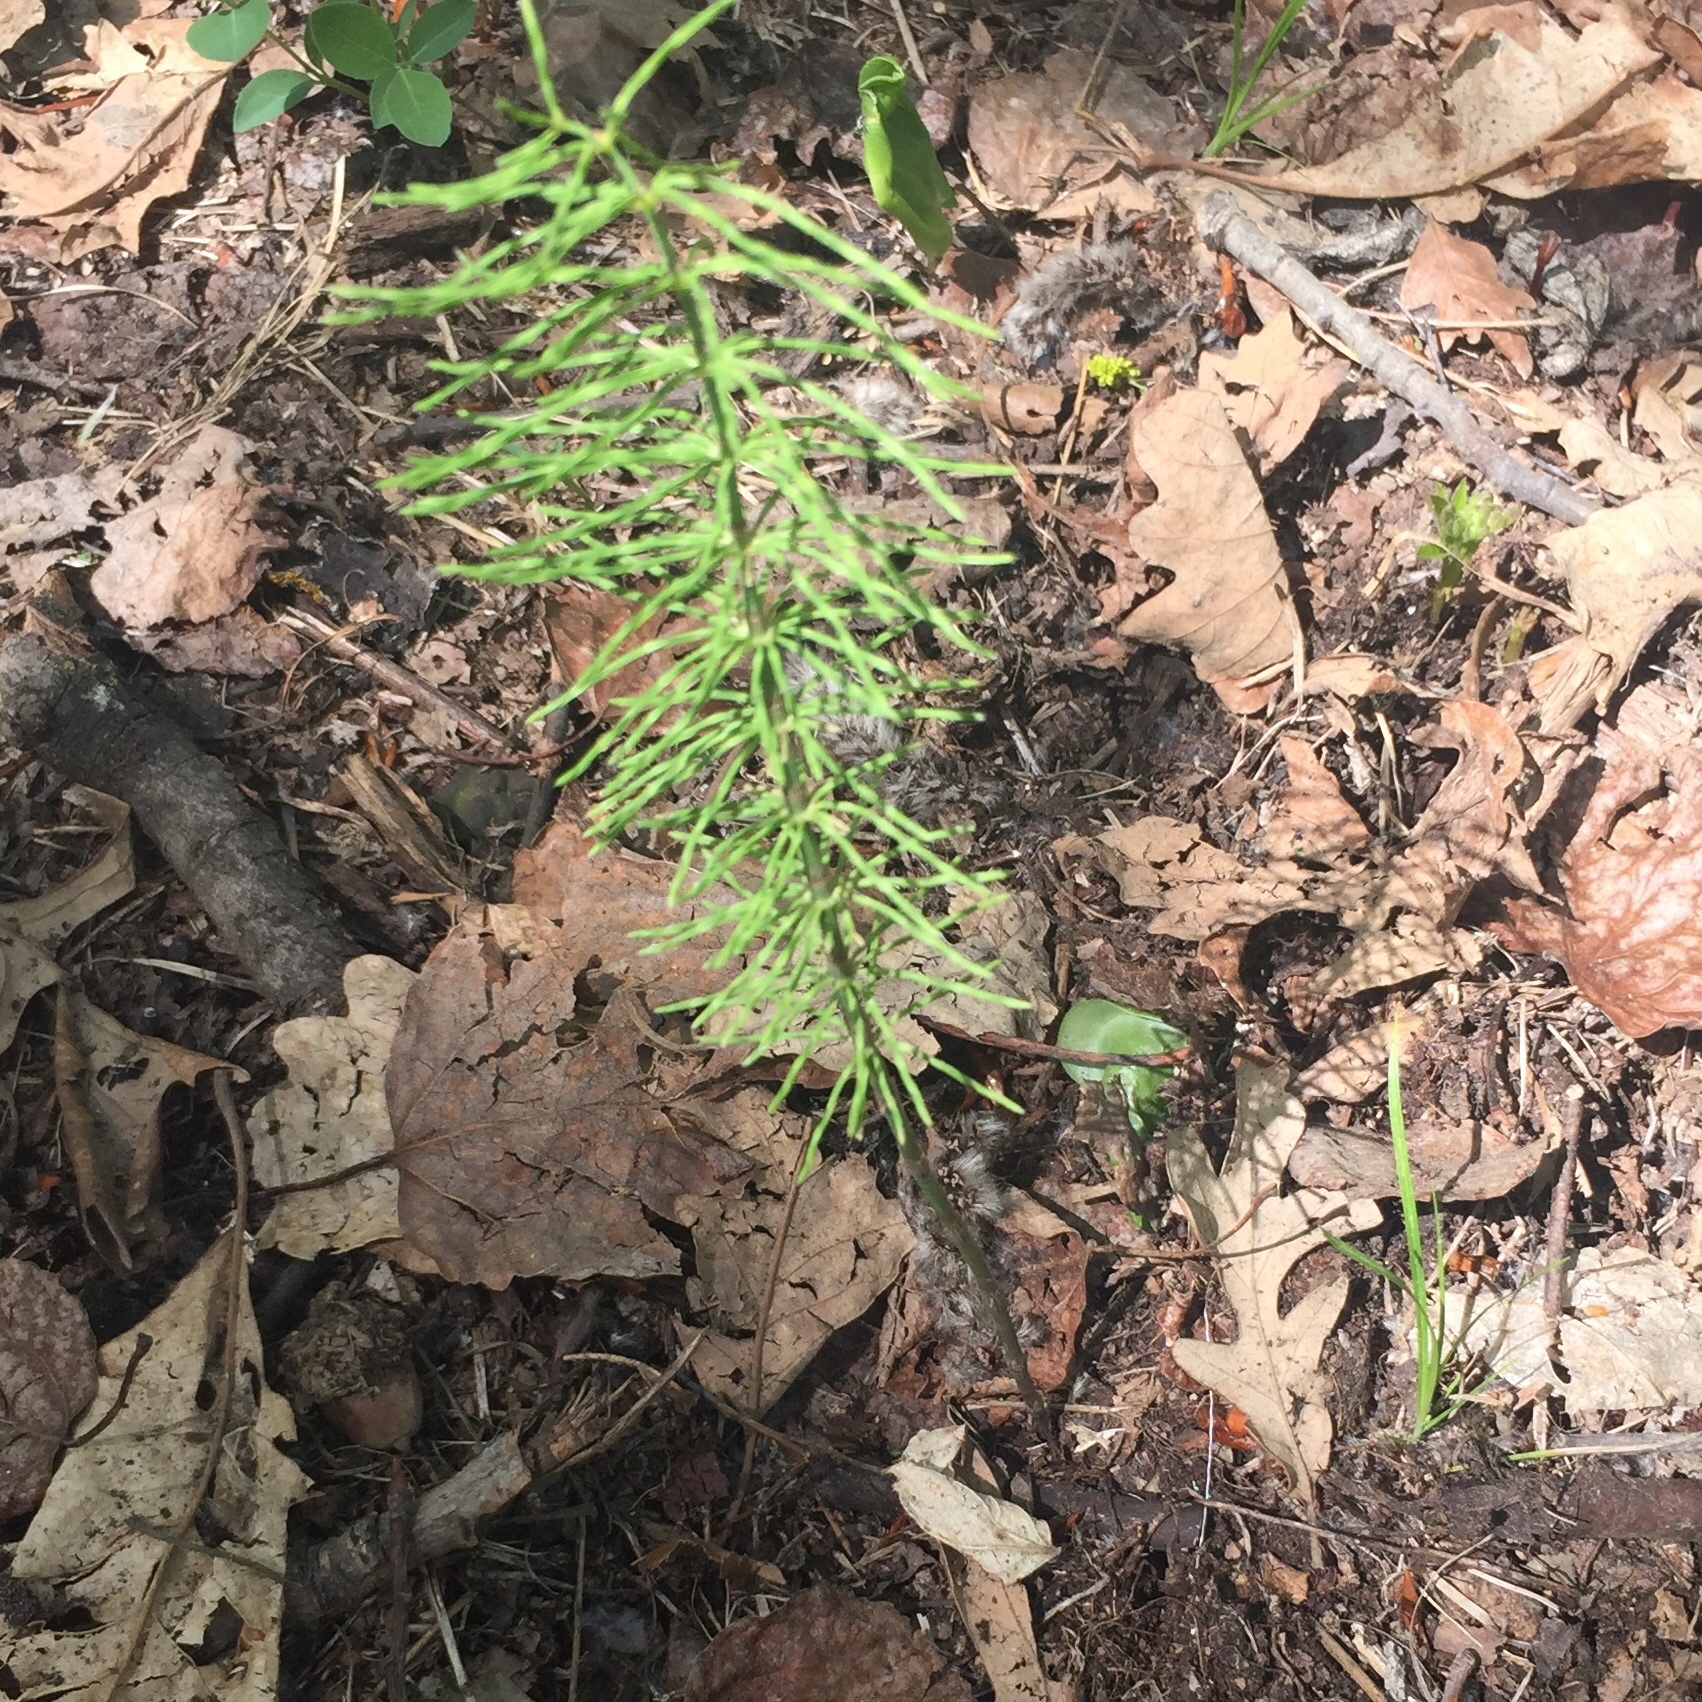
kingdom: Plantae
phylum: Tracheophyta
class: Polypodiopsida
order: Equisetales
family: Equisetaceae
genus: Equisetum
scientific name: Equisetum arvense
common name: Field horsetail
